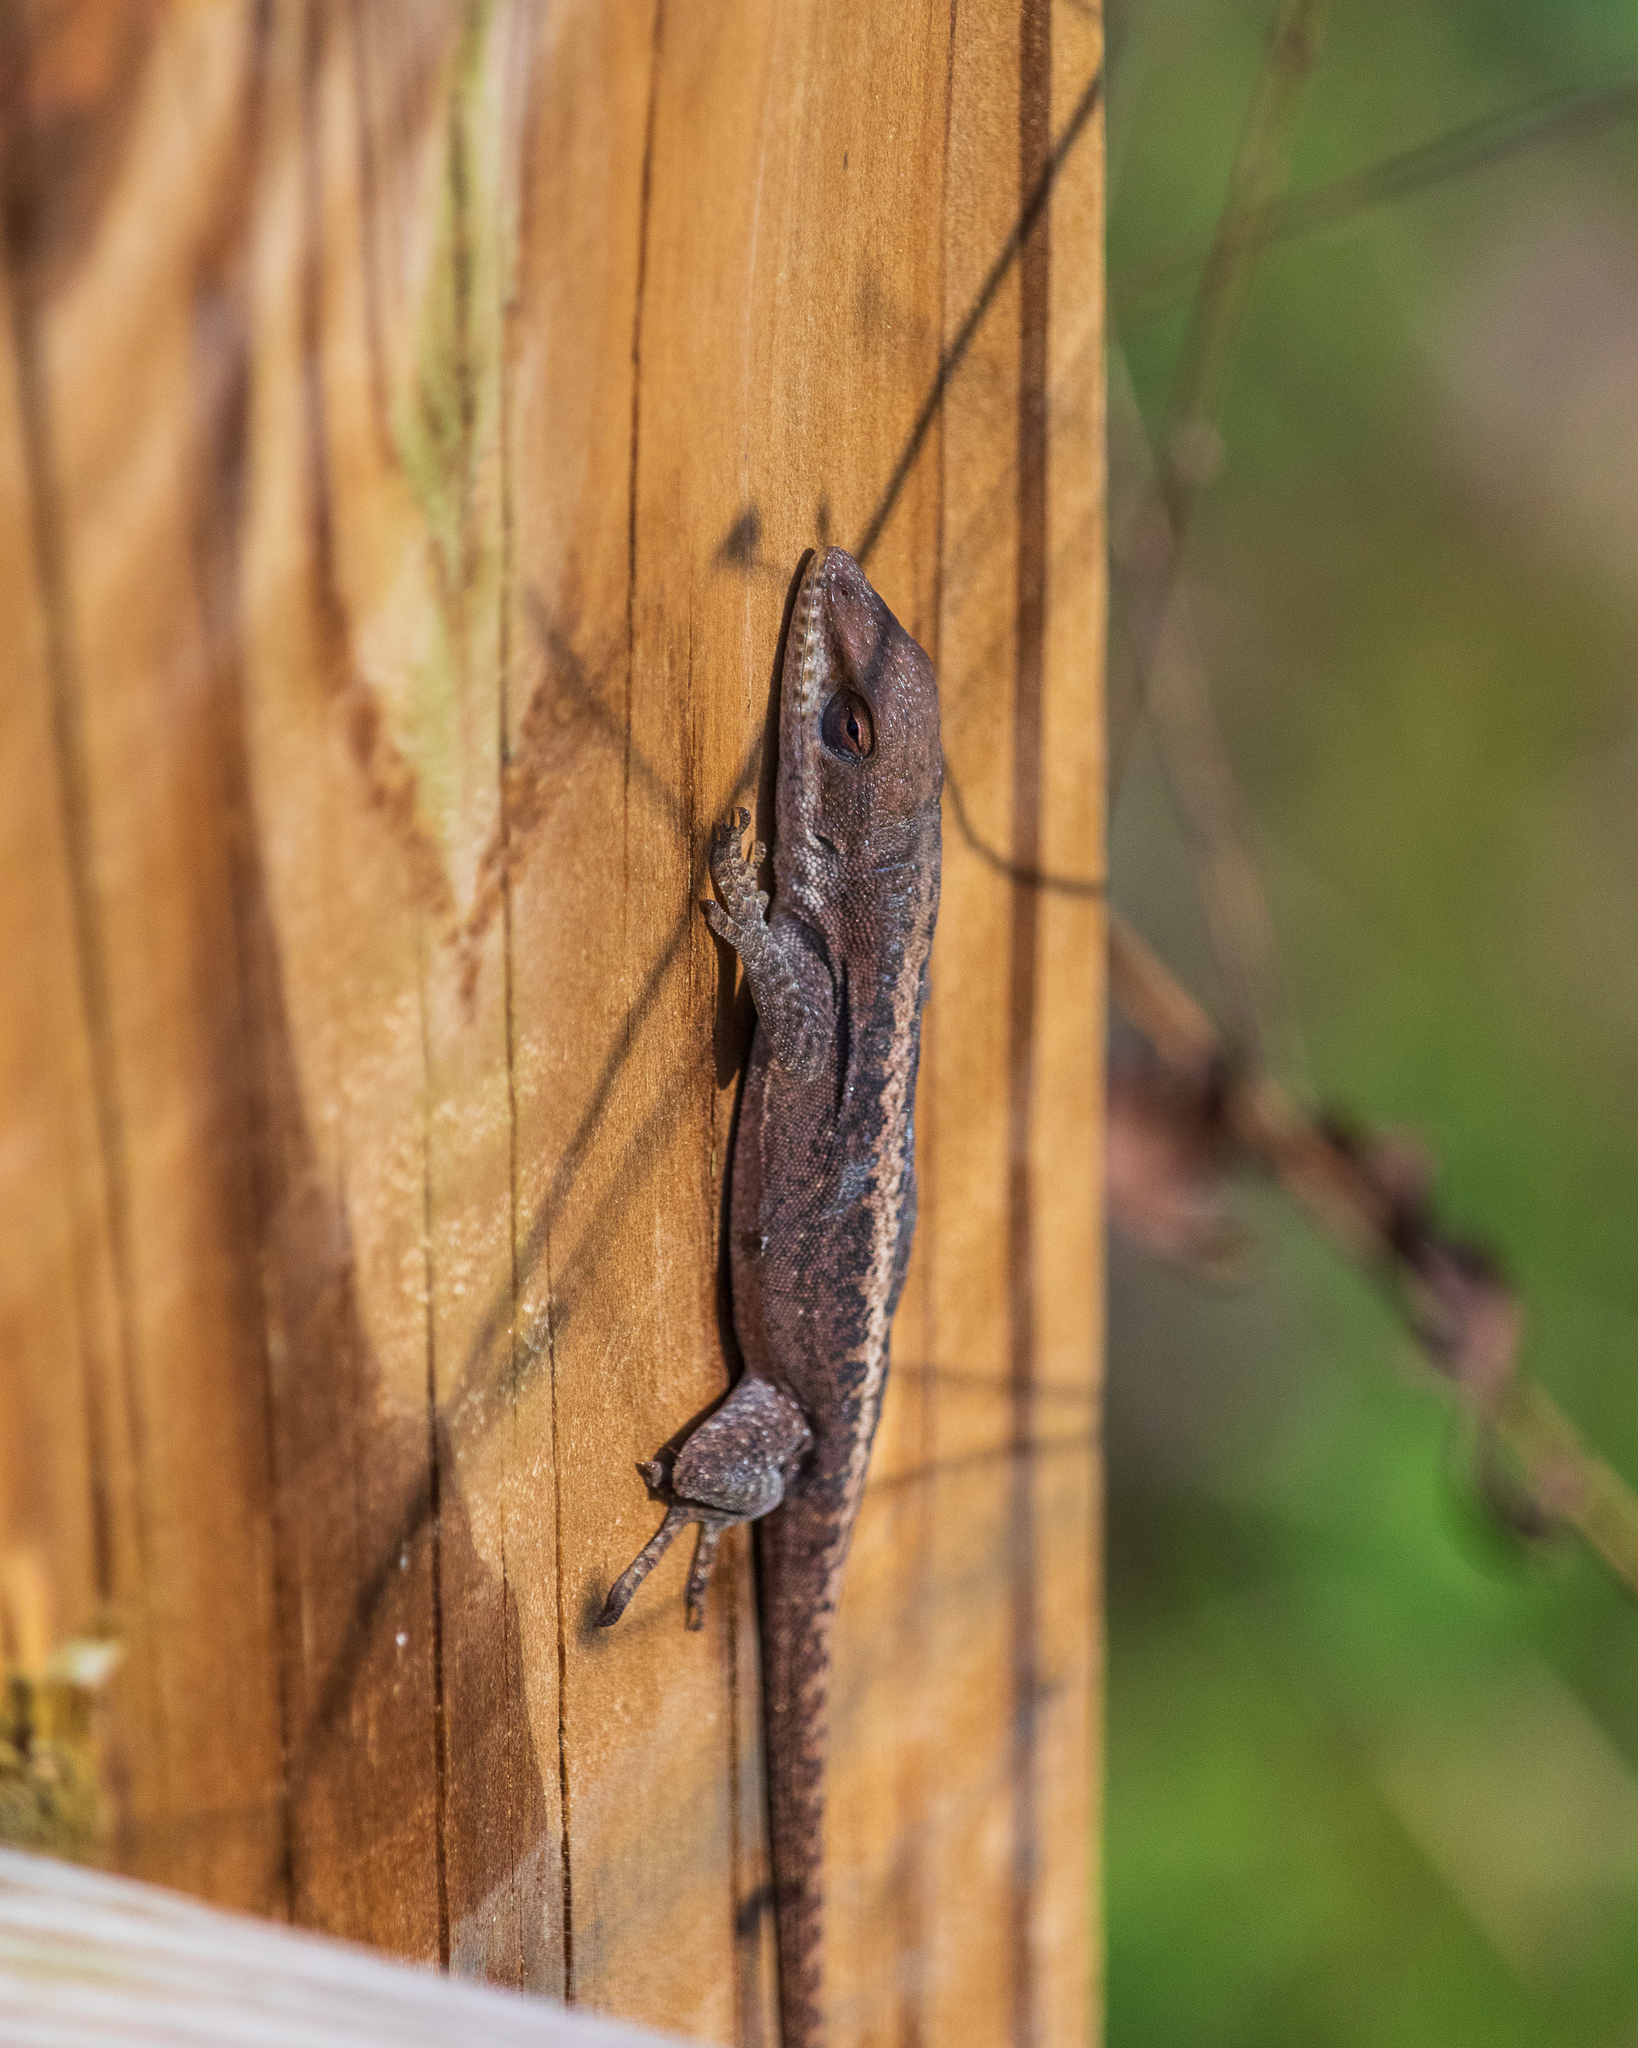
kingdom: Animalia
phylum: Chordata
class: Squamata
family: Dactyloidae
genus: Anolis
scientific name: Anolis carolinensis
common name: Green anole
